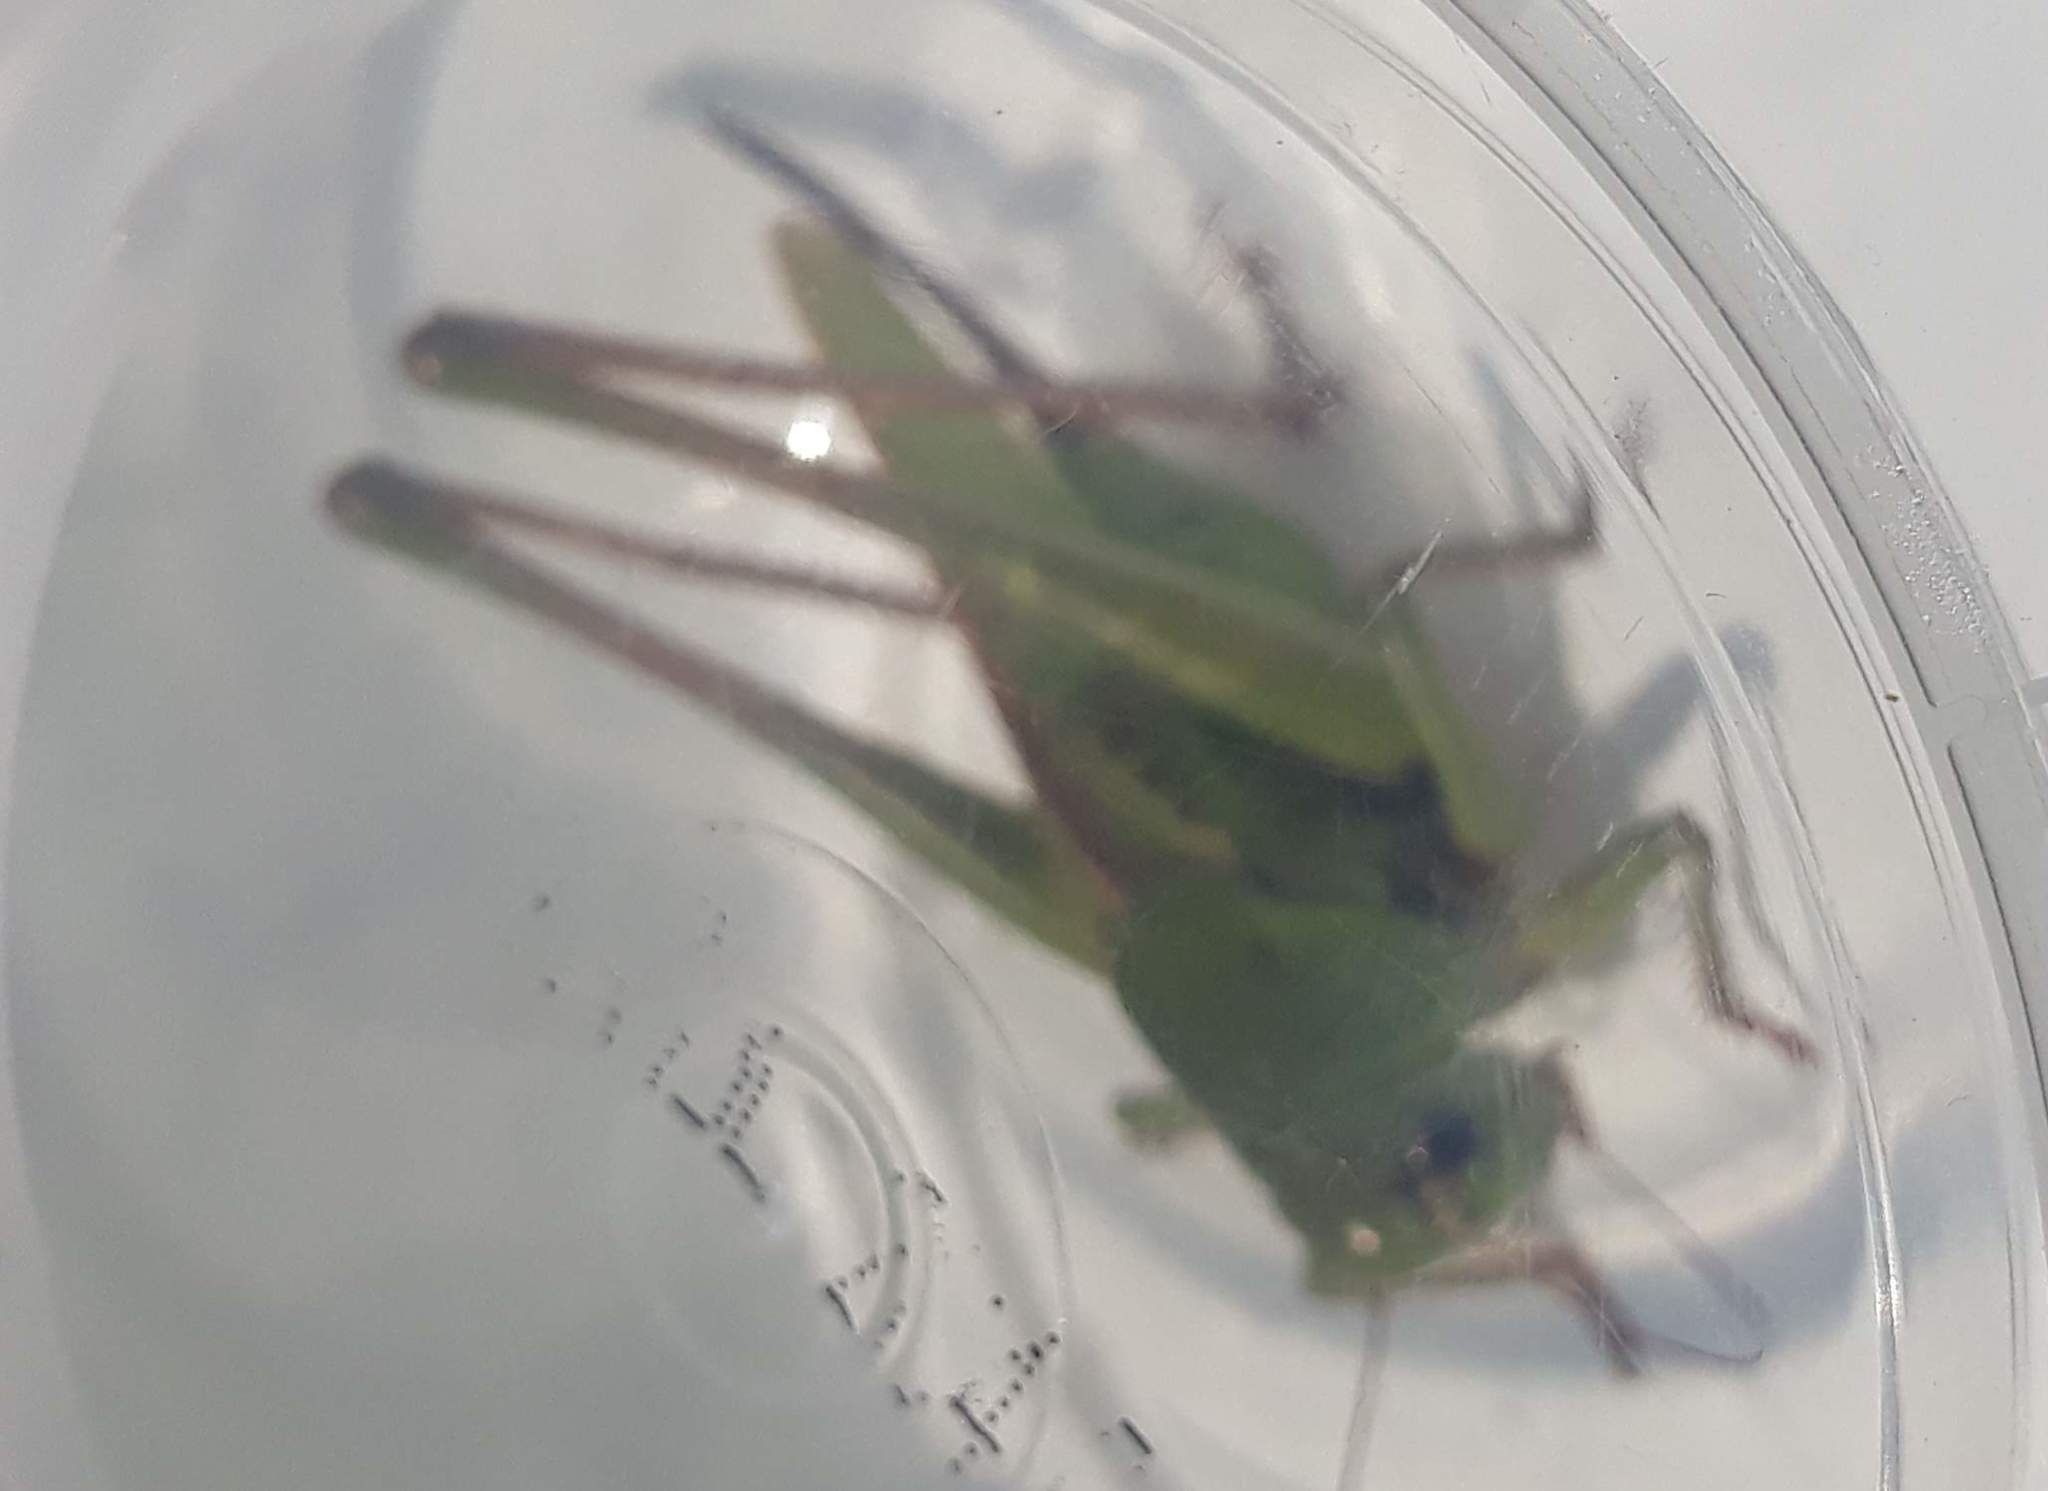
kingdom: Animalia
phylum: Arthropoda
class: Insecta
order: Orthoptera
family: Tettigoniidae
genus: Decticus
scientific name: Decticus verrucivorus
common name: Wart-biter
